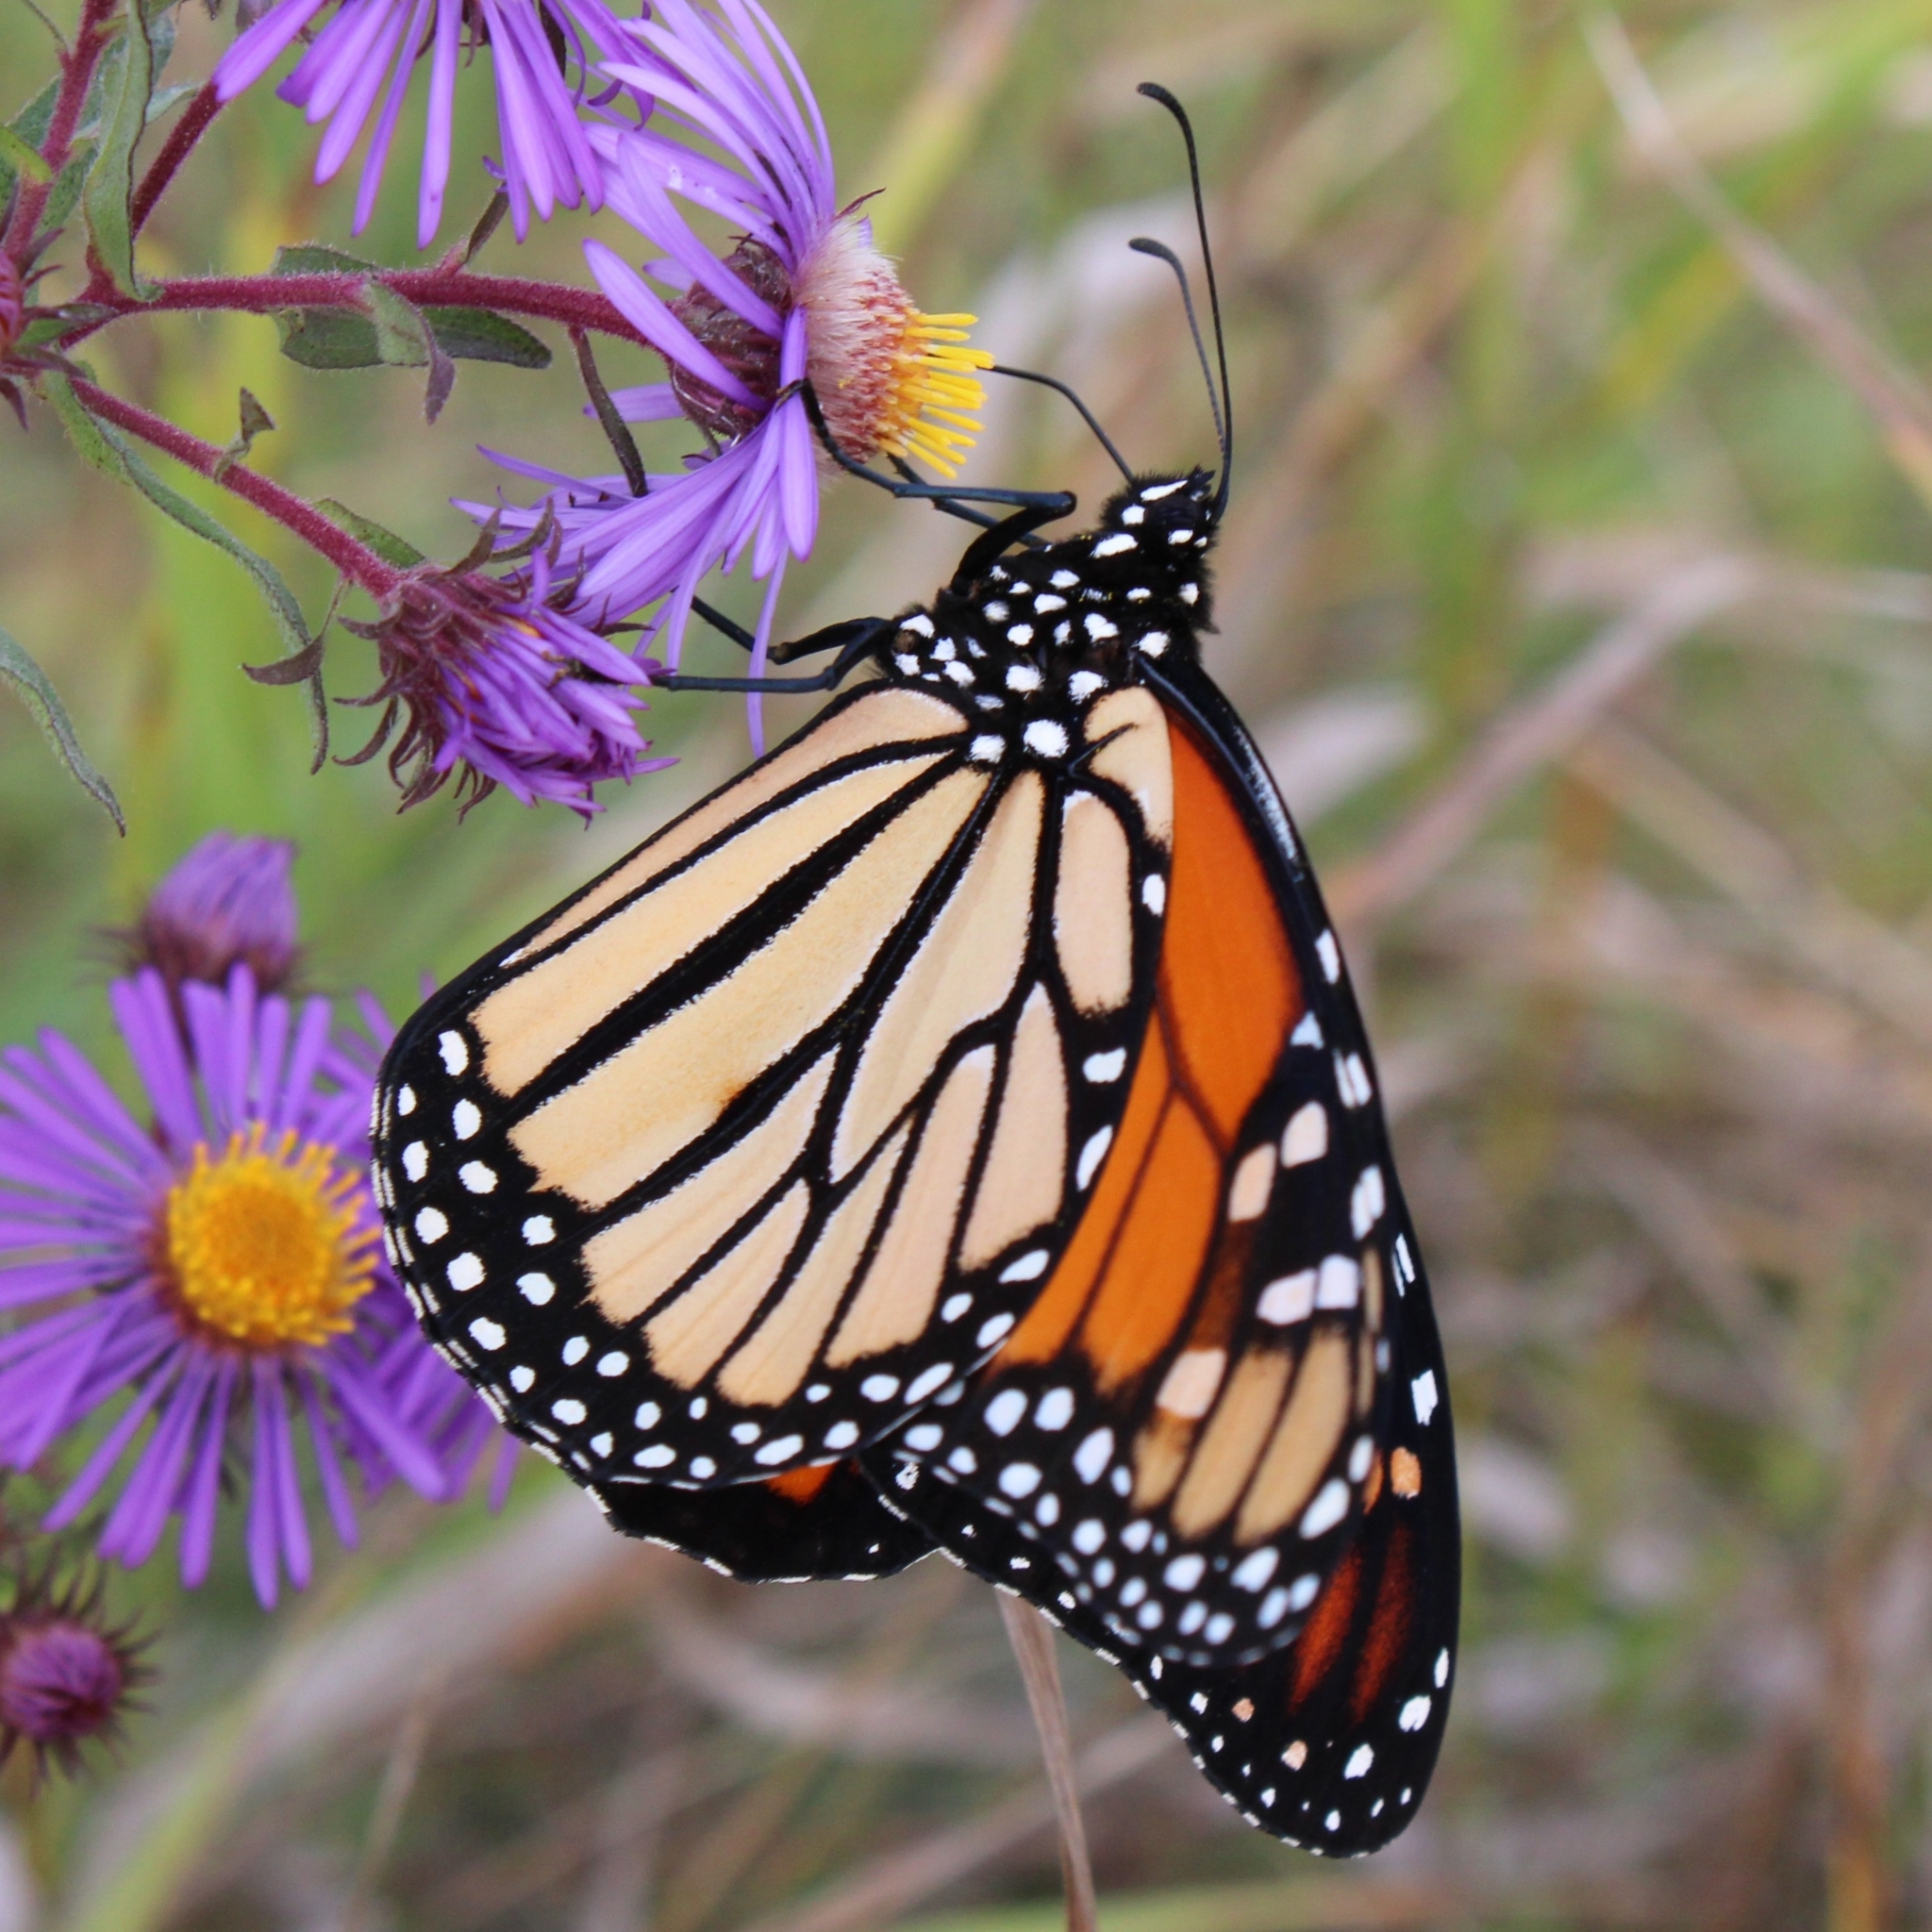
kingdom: Animalia
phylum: Arthropoda
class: Insecta
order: Lepidoptera
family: Nymphalidae
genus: Danaus
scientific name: Danaus plexippus
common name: Monarch
